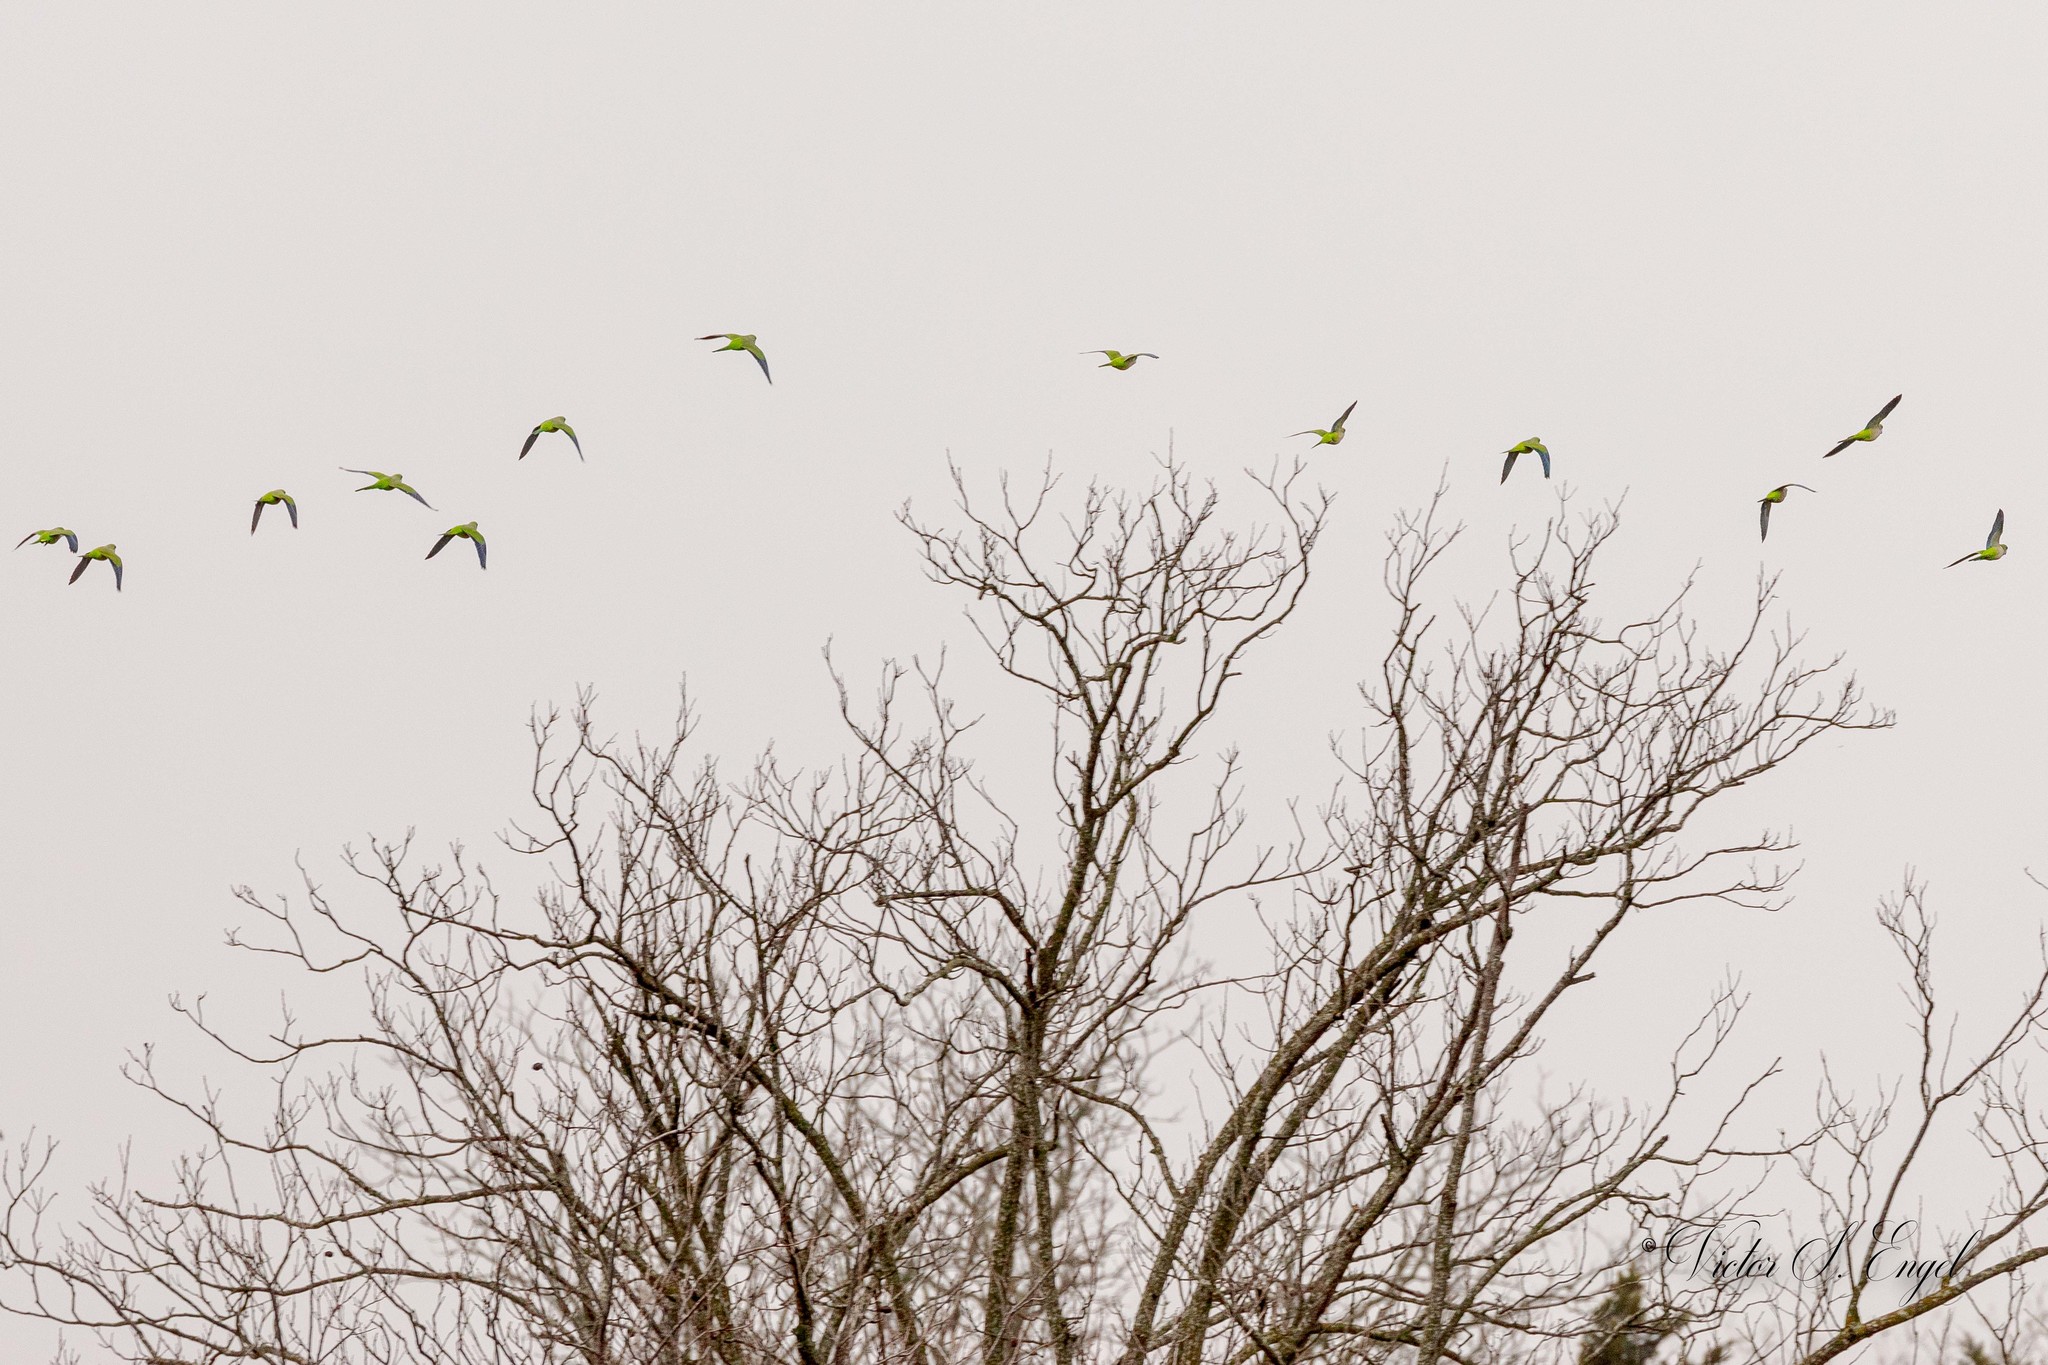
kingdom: Animalia
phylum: Chordata
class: Aves
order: Psittaciformes
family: Psittacidae
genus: Myiopsitta
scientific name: Myiopsitta monachus
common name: Monk parakeet
